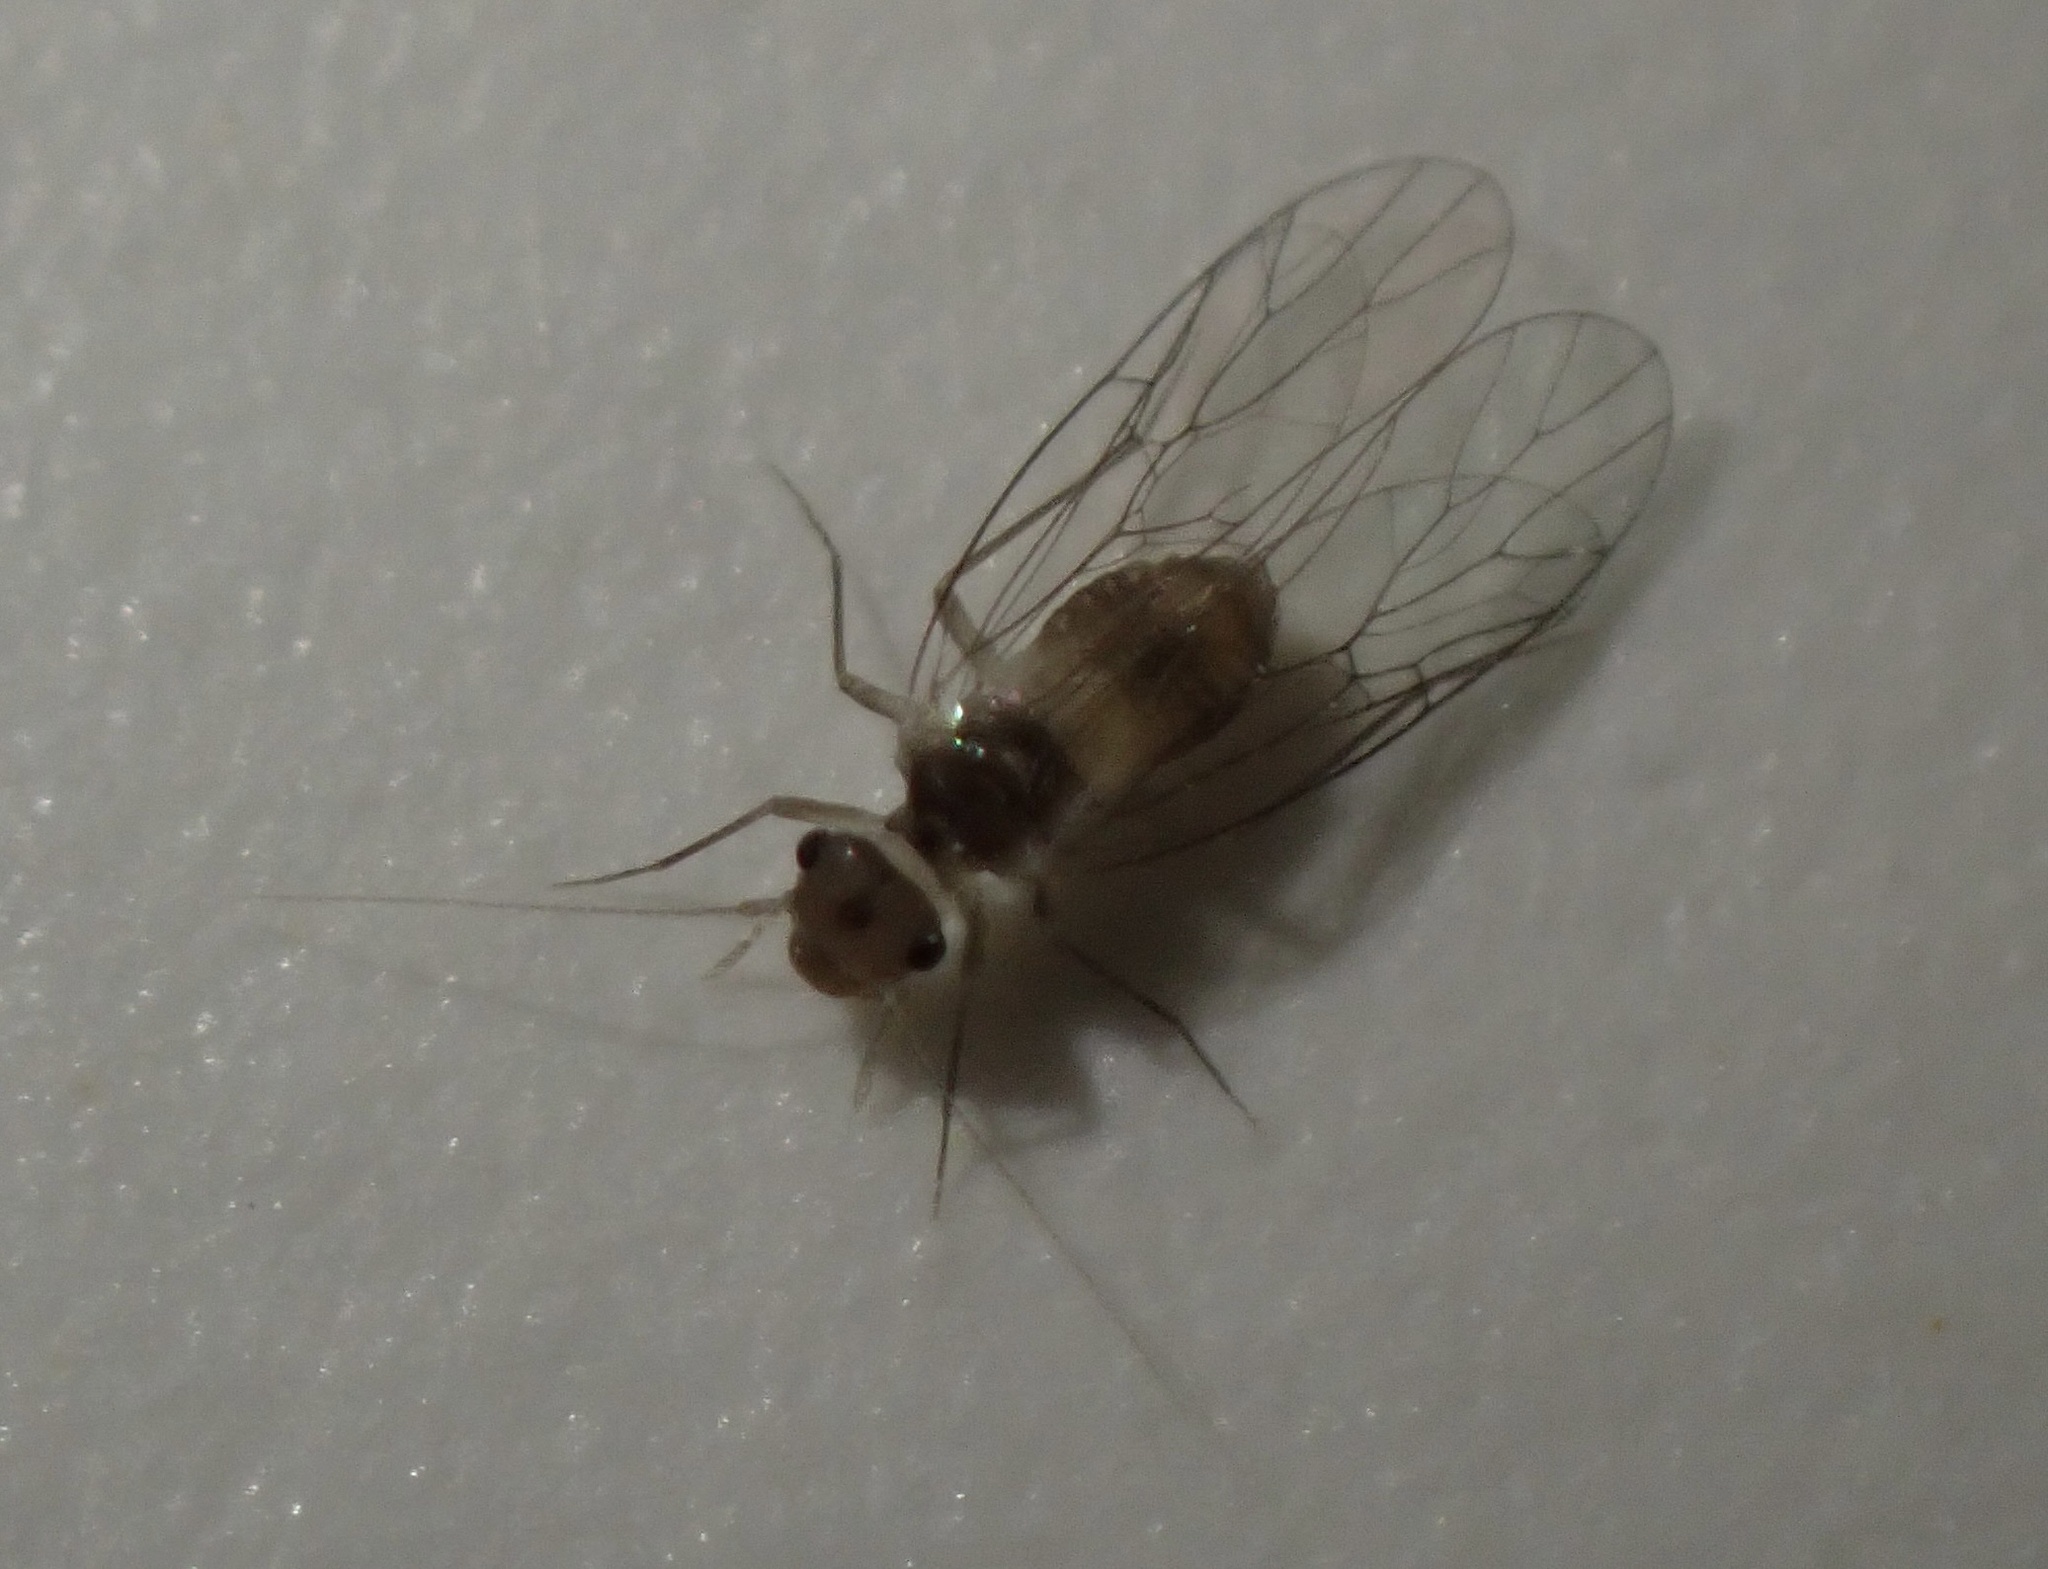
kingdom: Animalia
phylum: Arthropoda
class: Insecta
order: Psocodea
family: Psyllipsocidae
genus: Psyllipsocus
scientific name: Psyllipsocus ramburii
